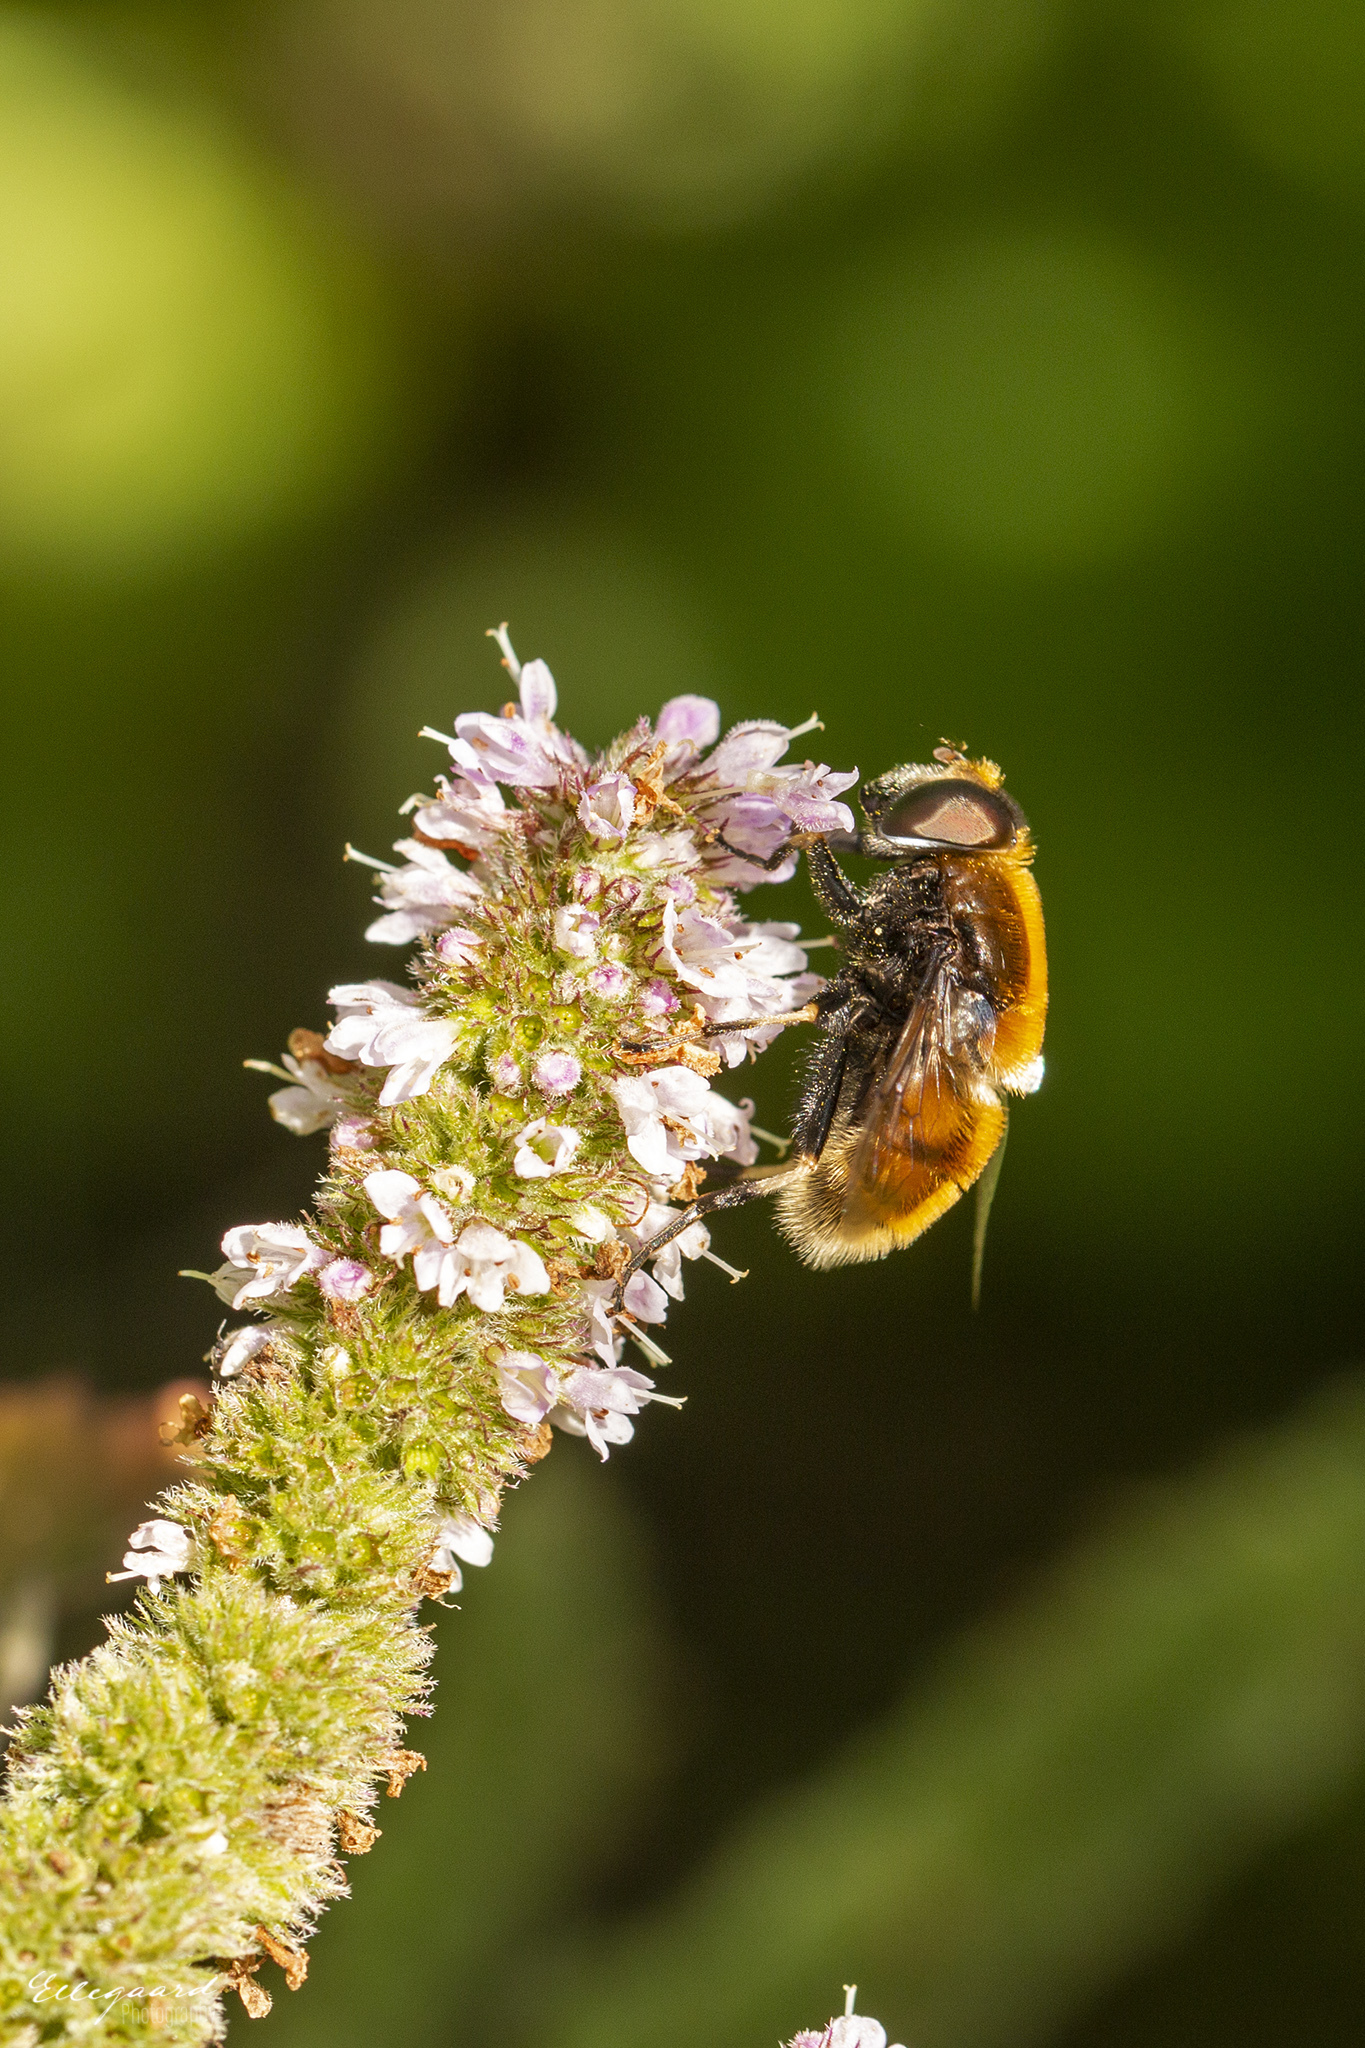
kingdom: Animalia
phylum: Arthropoda
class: Insecta
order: Diptera
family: Syrphidae
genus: Eristalis
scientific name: Eristalis intricaria
